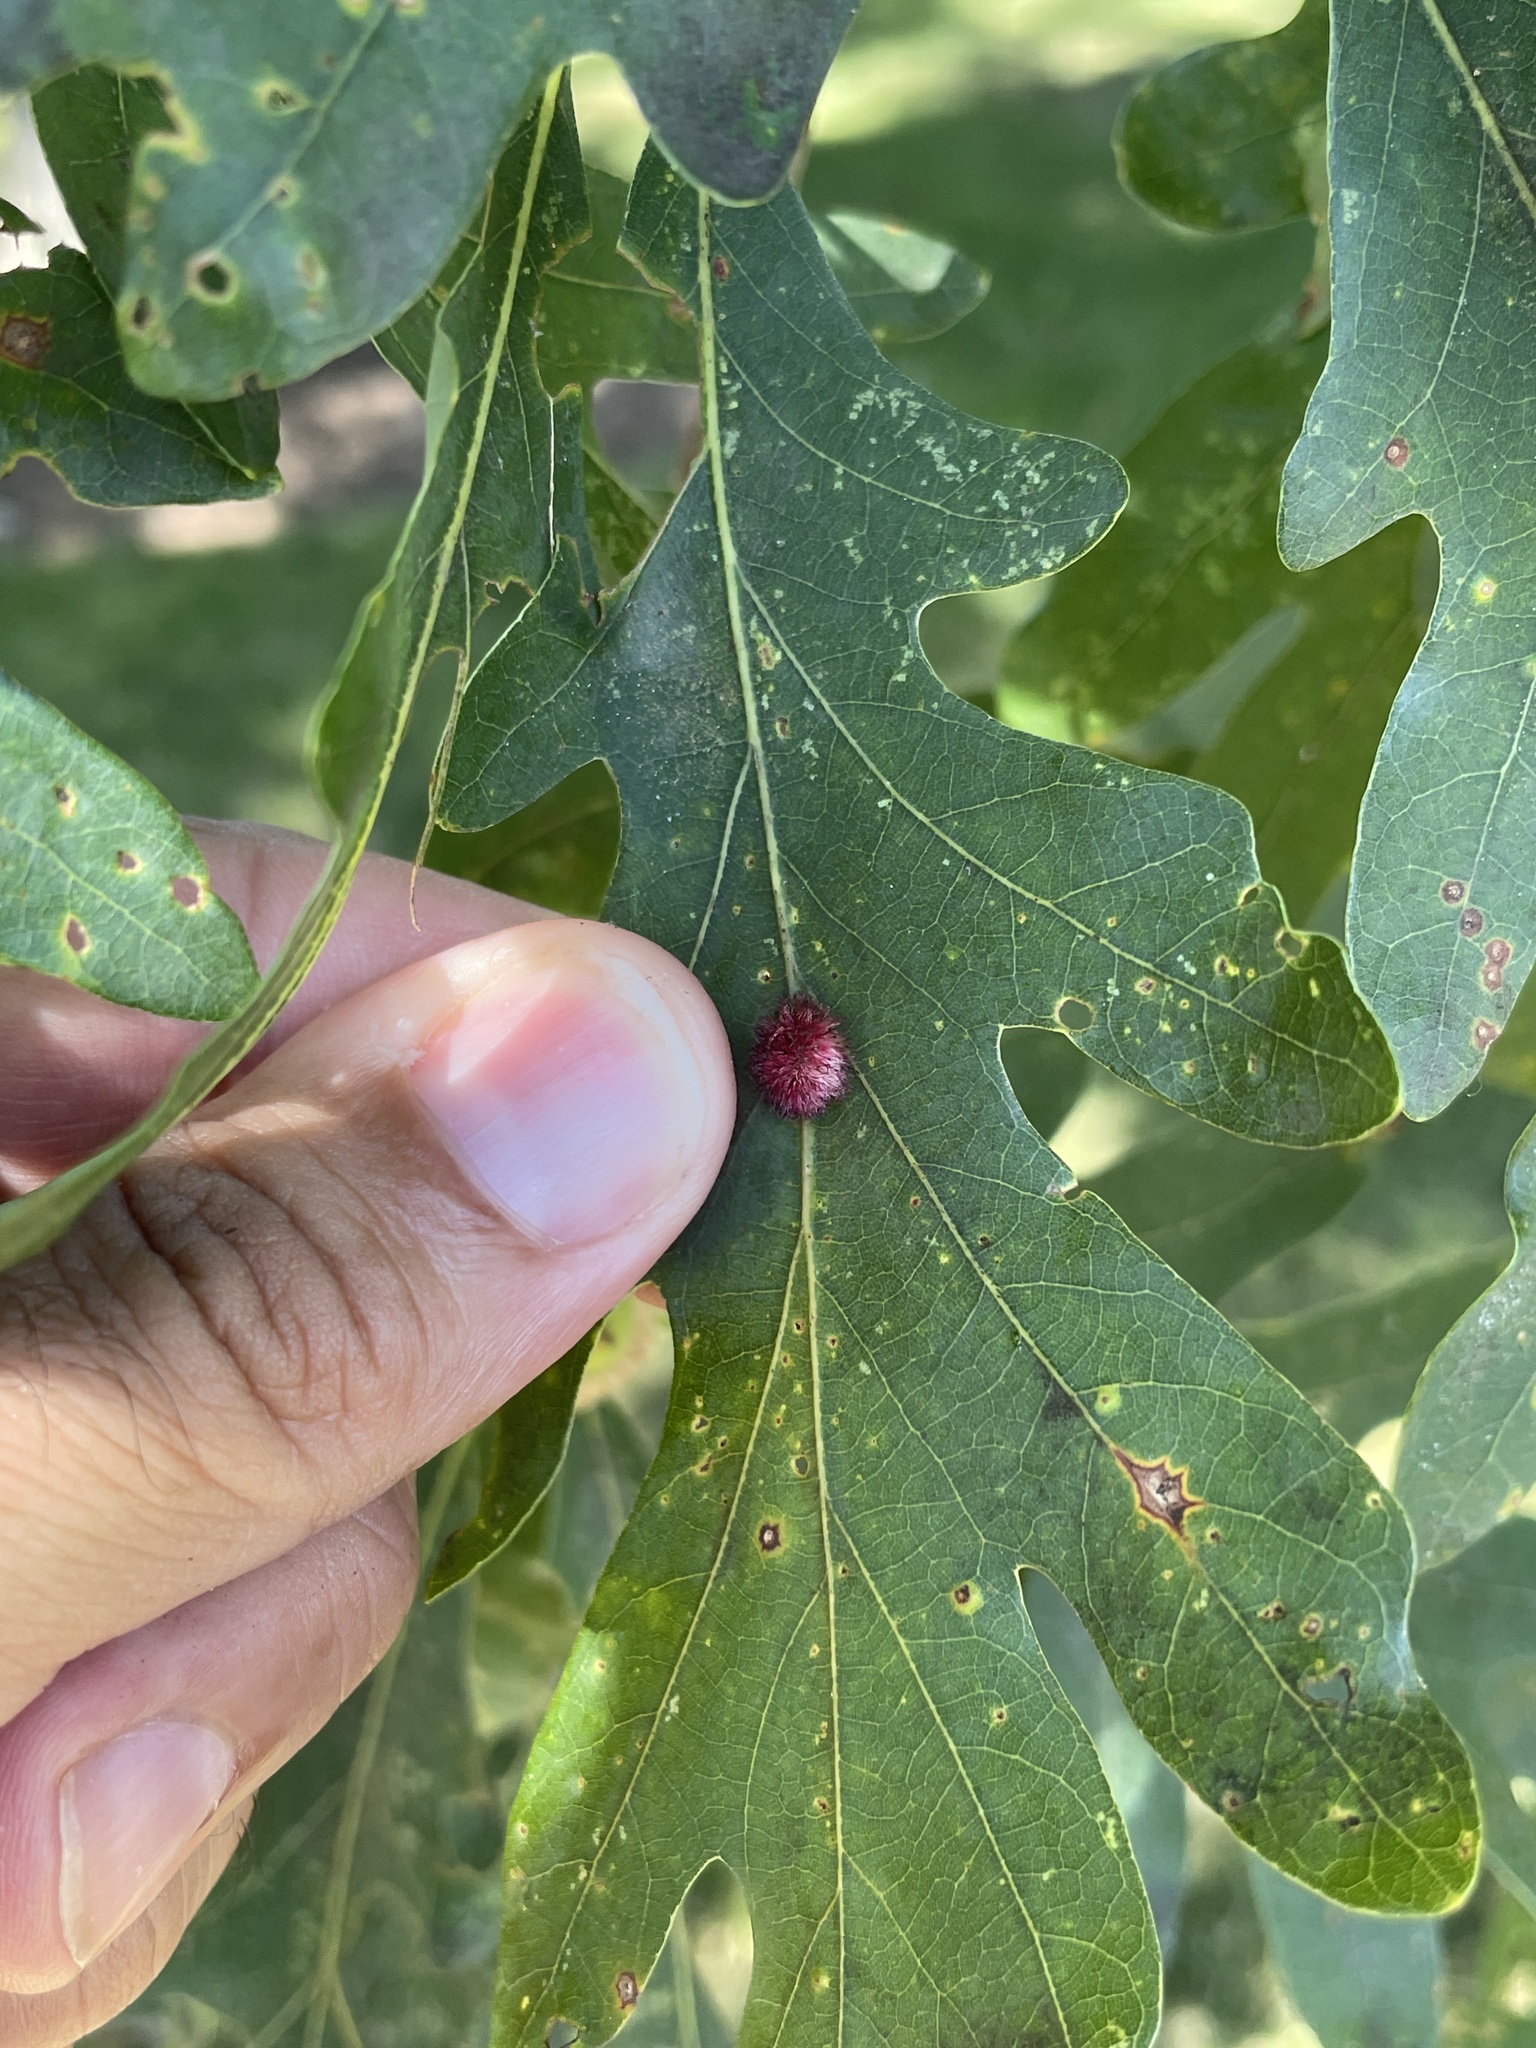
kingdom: Animalia
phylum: Arthropoda
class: Insecta
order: Hymenoptera
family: Cynipidae
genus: Acraspis
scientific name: Acraspis erinacei
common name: Hedgehog gall wasp
